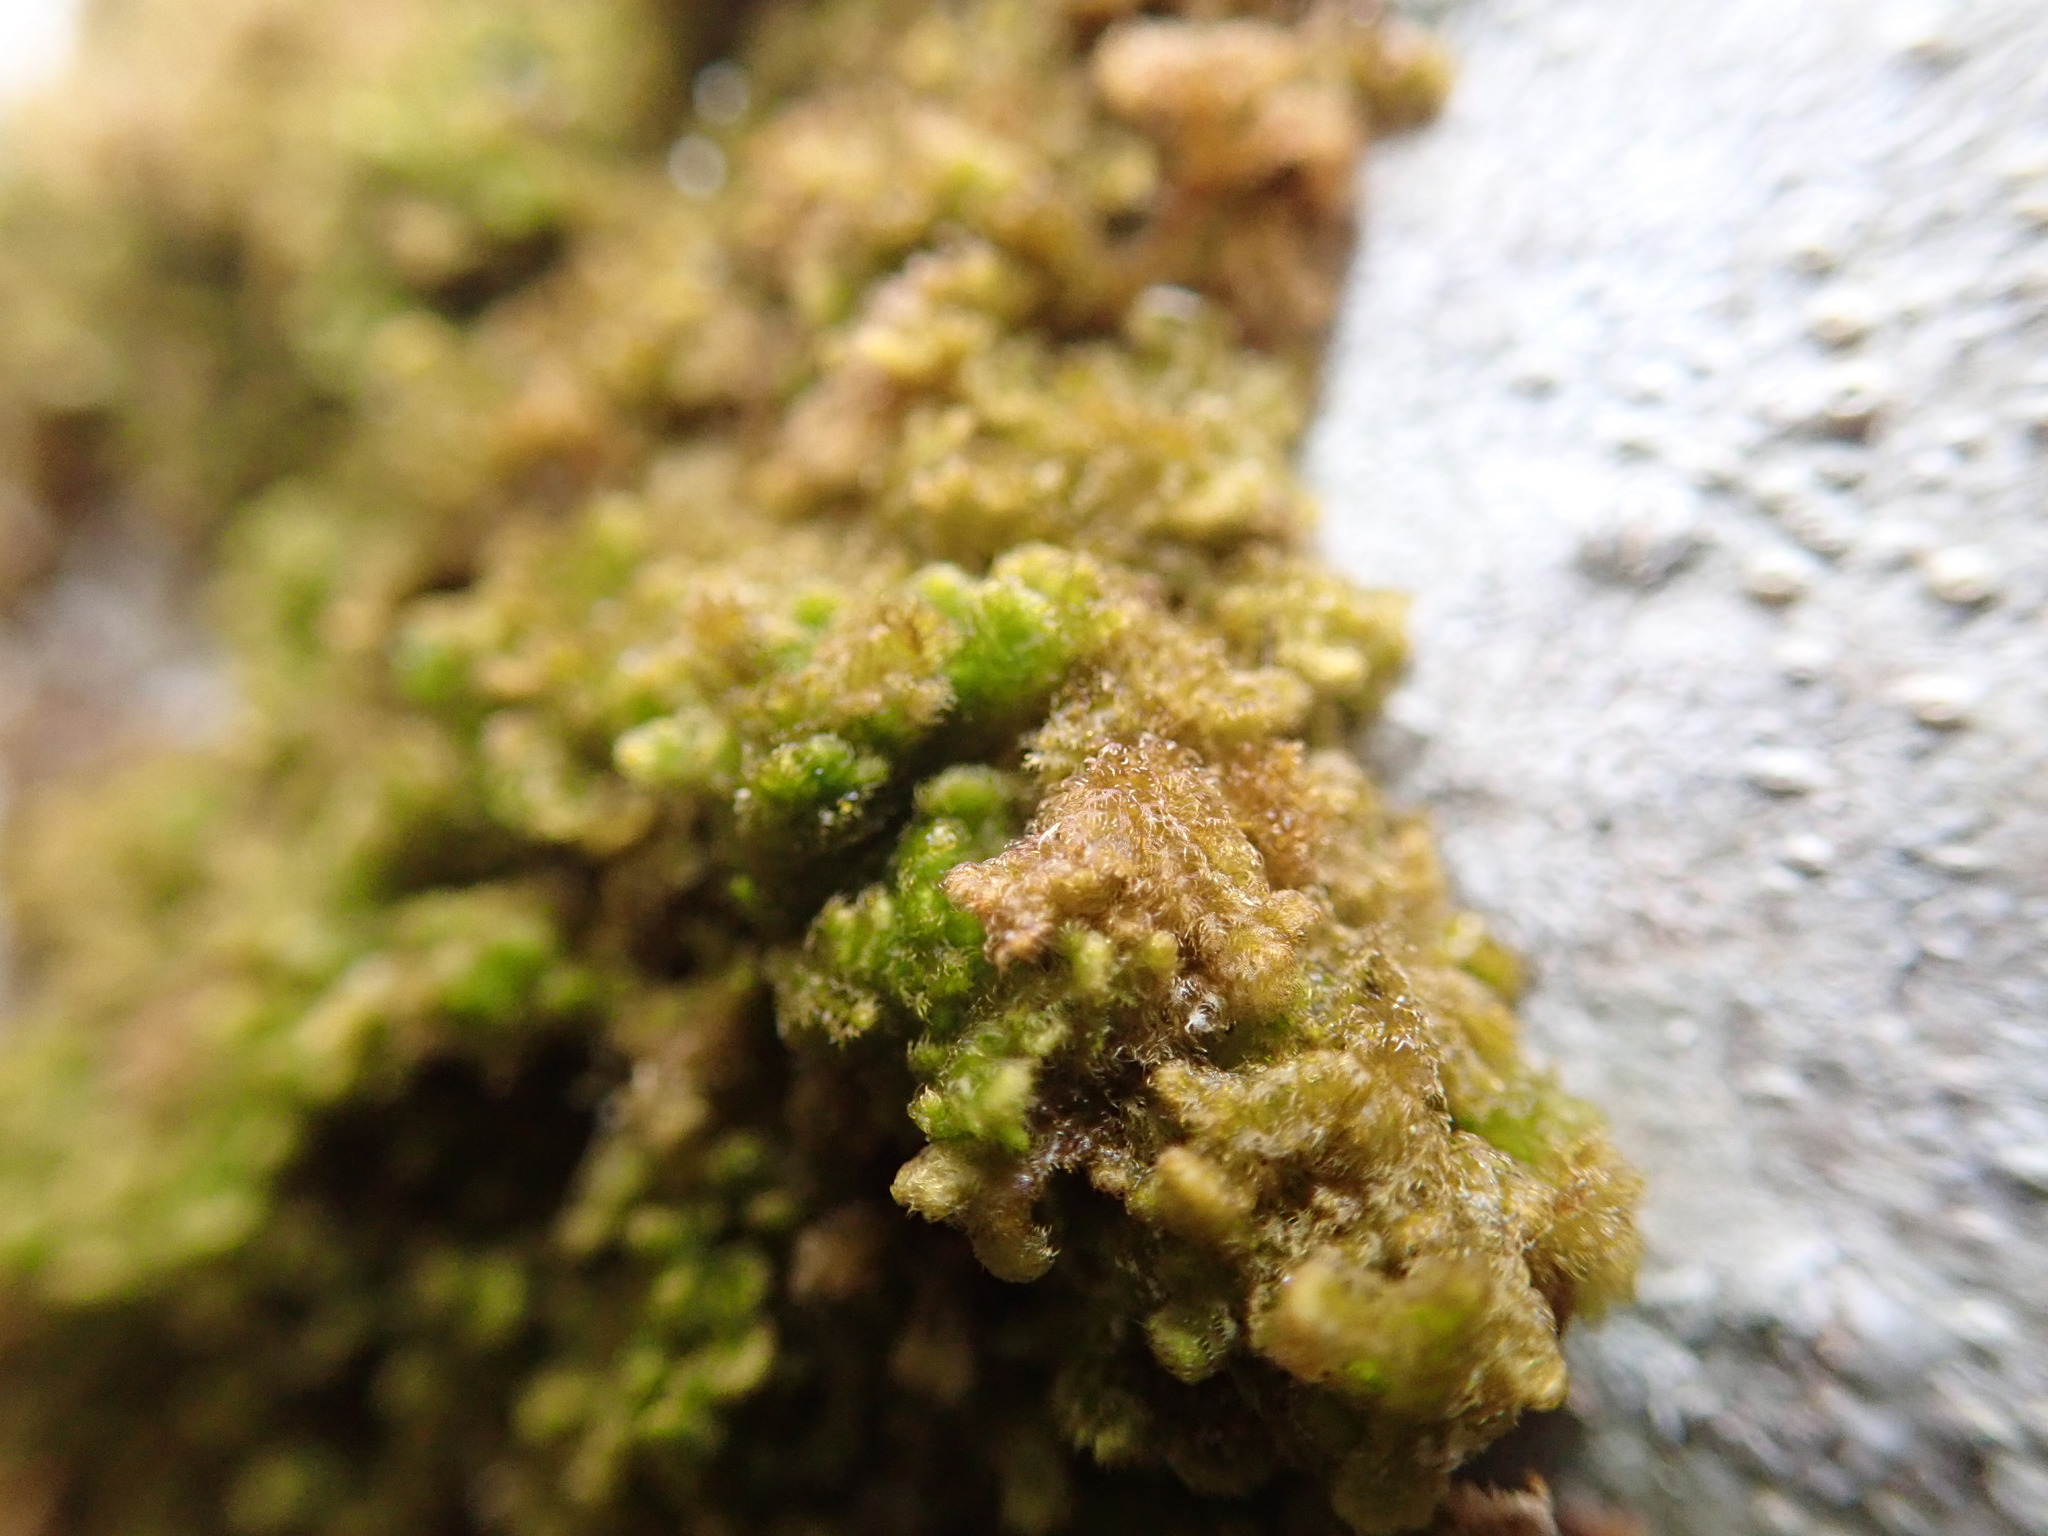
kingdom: Plantae
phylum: Marchantiophyta
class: Jungermanniopsida
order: Ptilidiales
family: Ptilidiaceae
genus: Ptilidium
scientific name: Ptilidium pulcherrimum
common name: Tree fringewort
